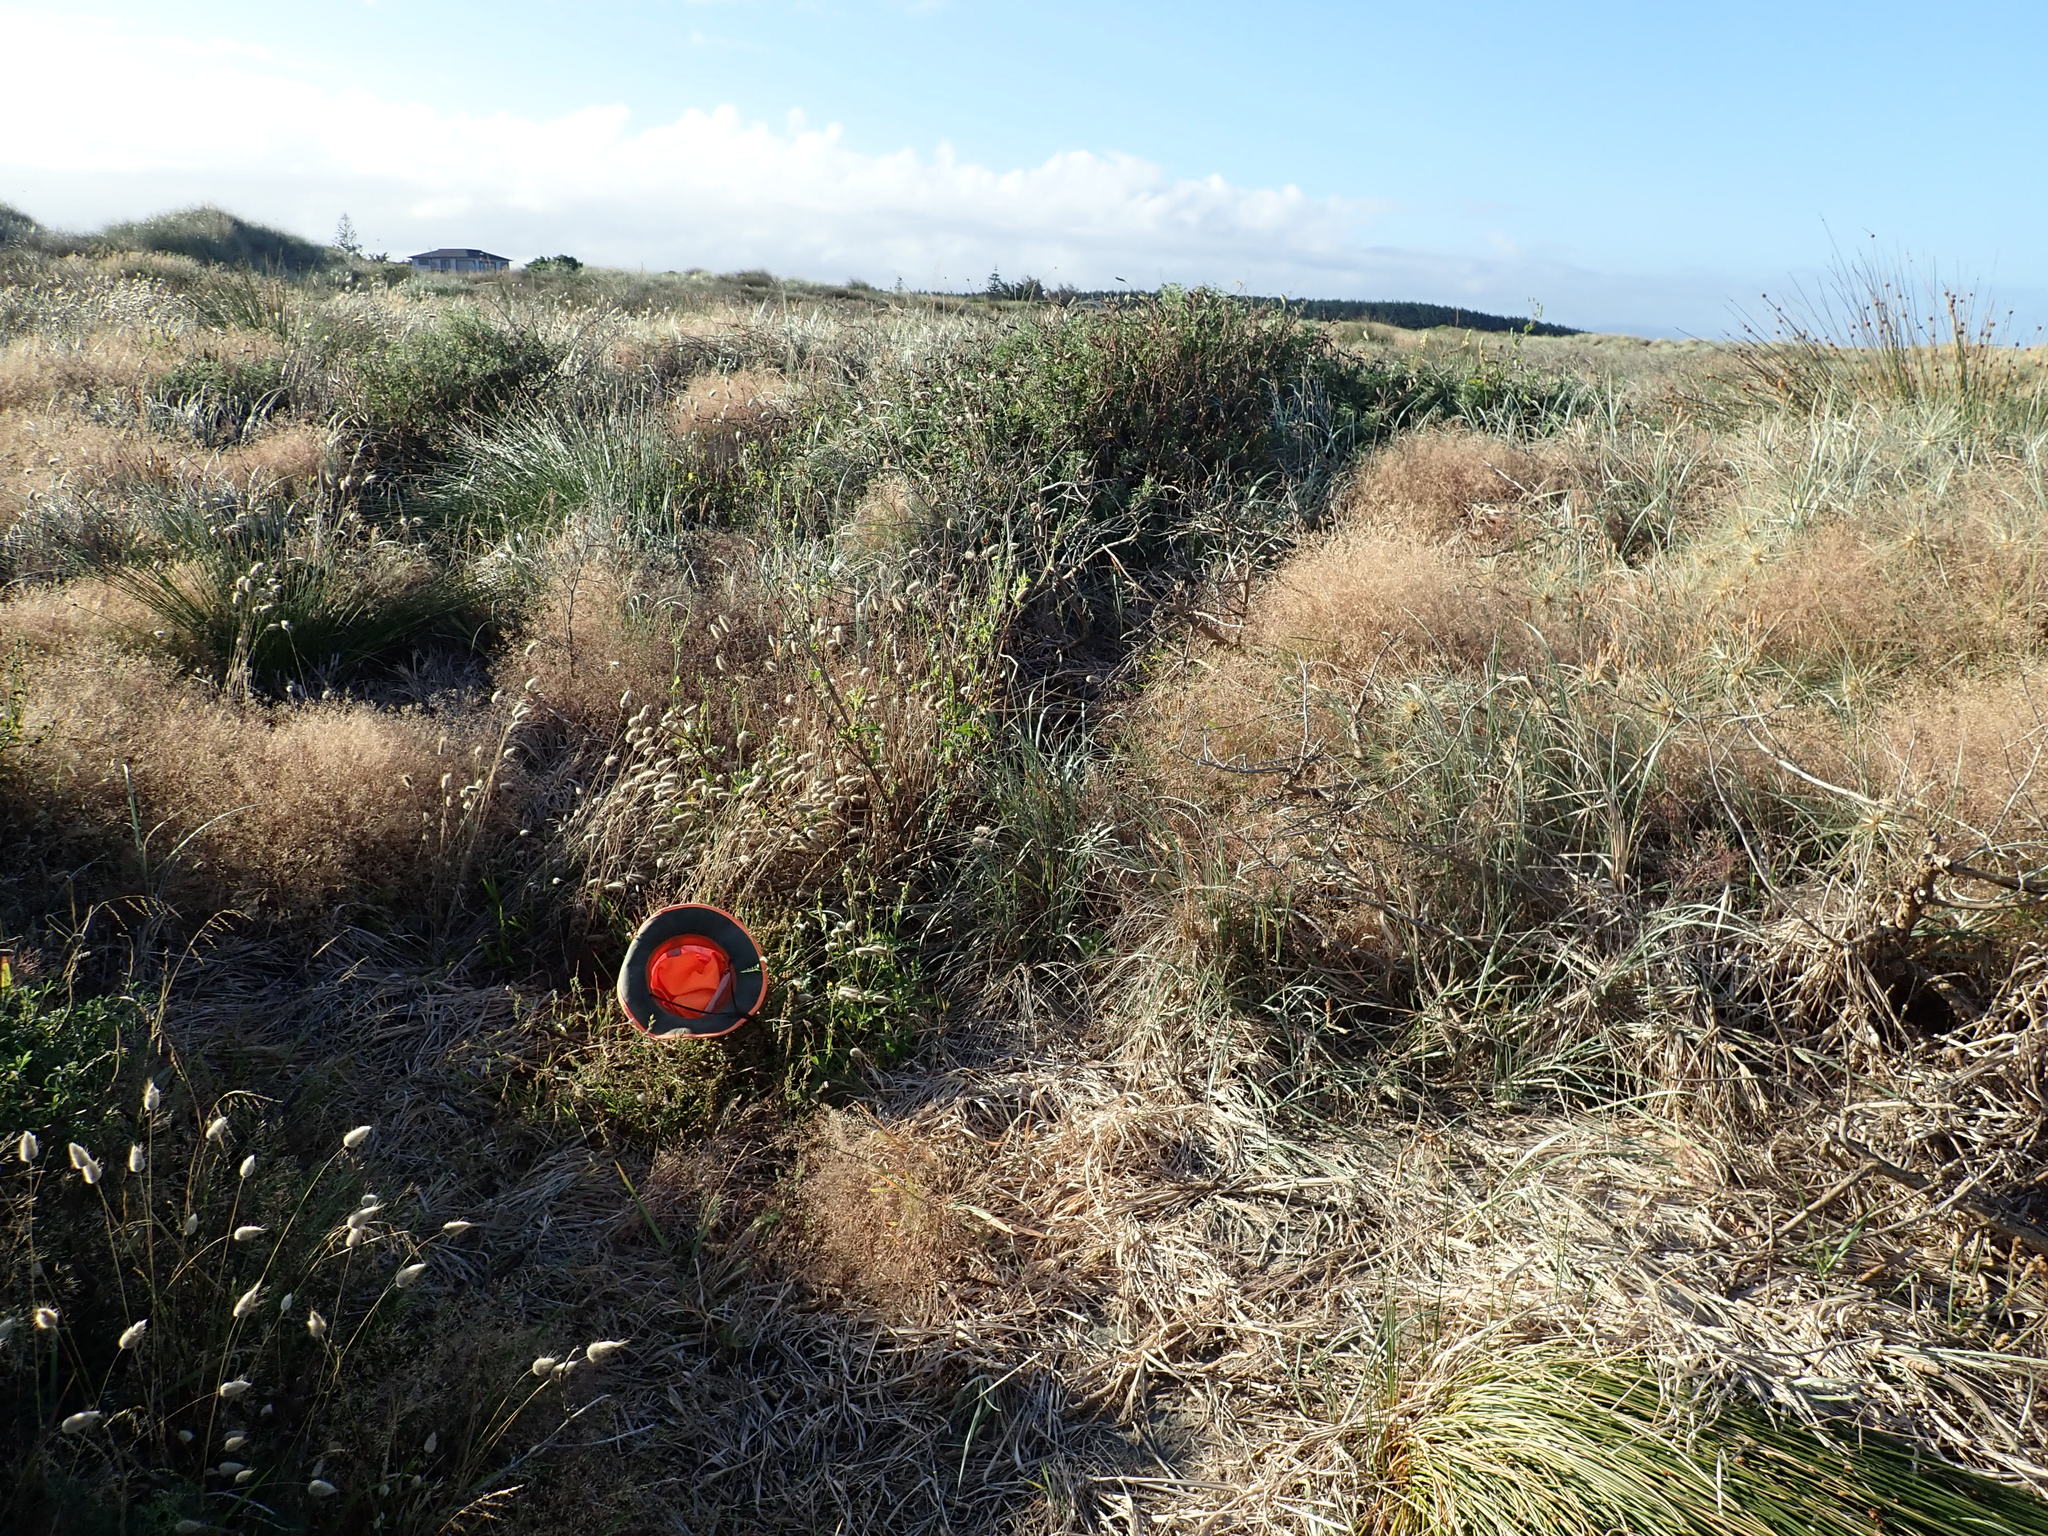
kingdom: Plantae
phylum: Tracheophyta
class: Magnoliopsida
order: Caryophyllales
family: Caryophyllaceae
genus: Silene
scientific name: Silene gallica
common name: Small-flowered catchfly
